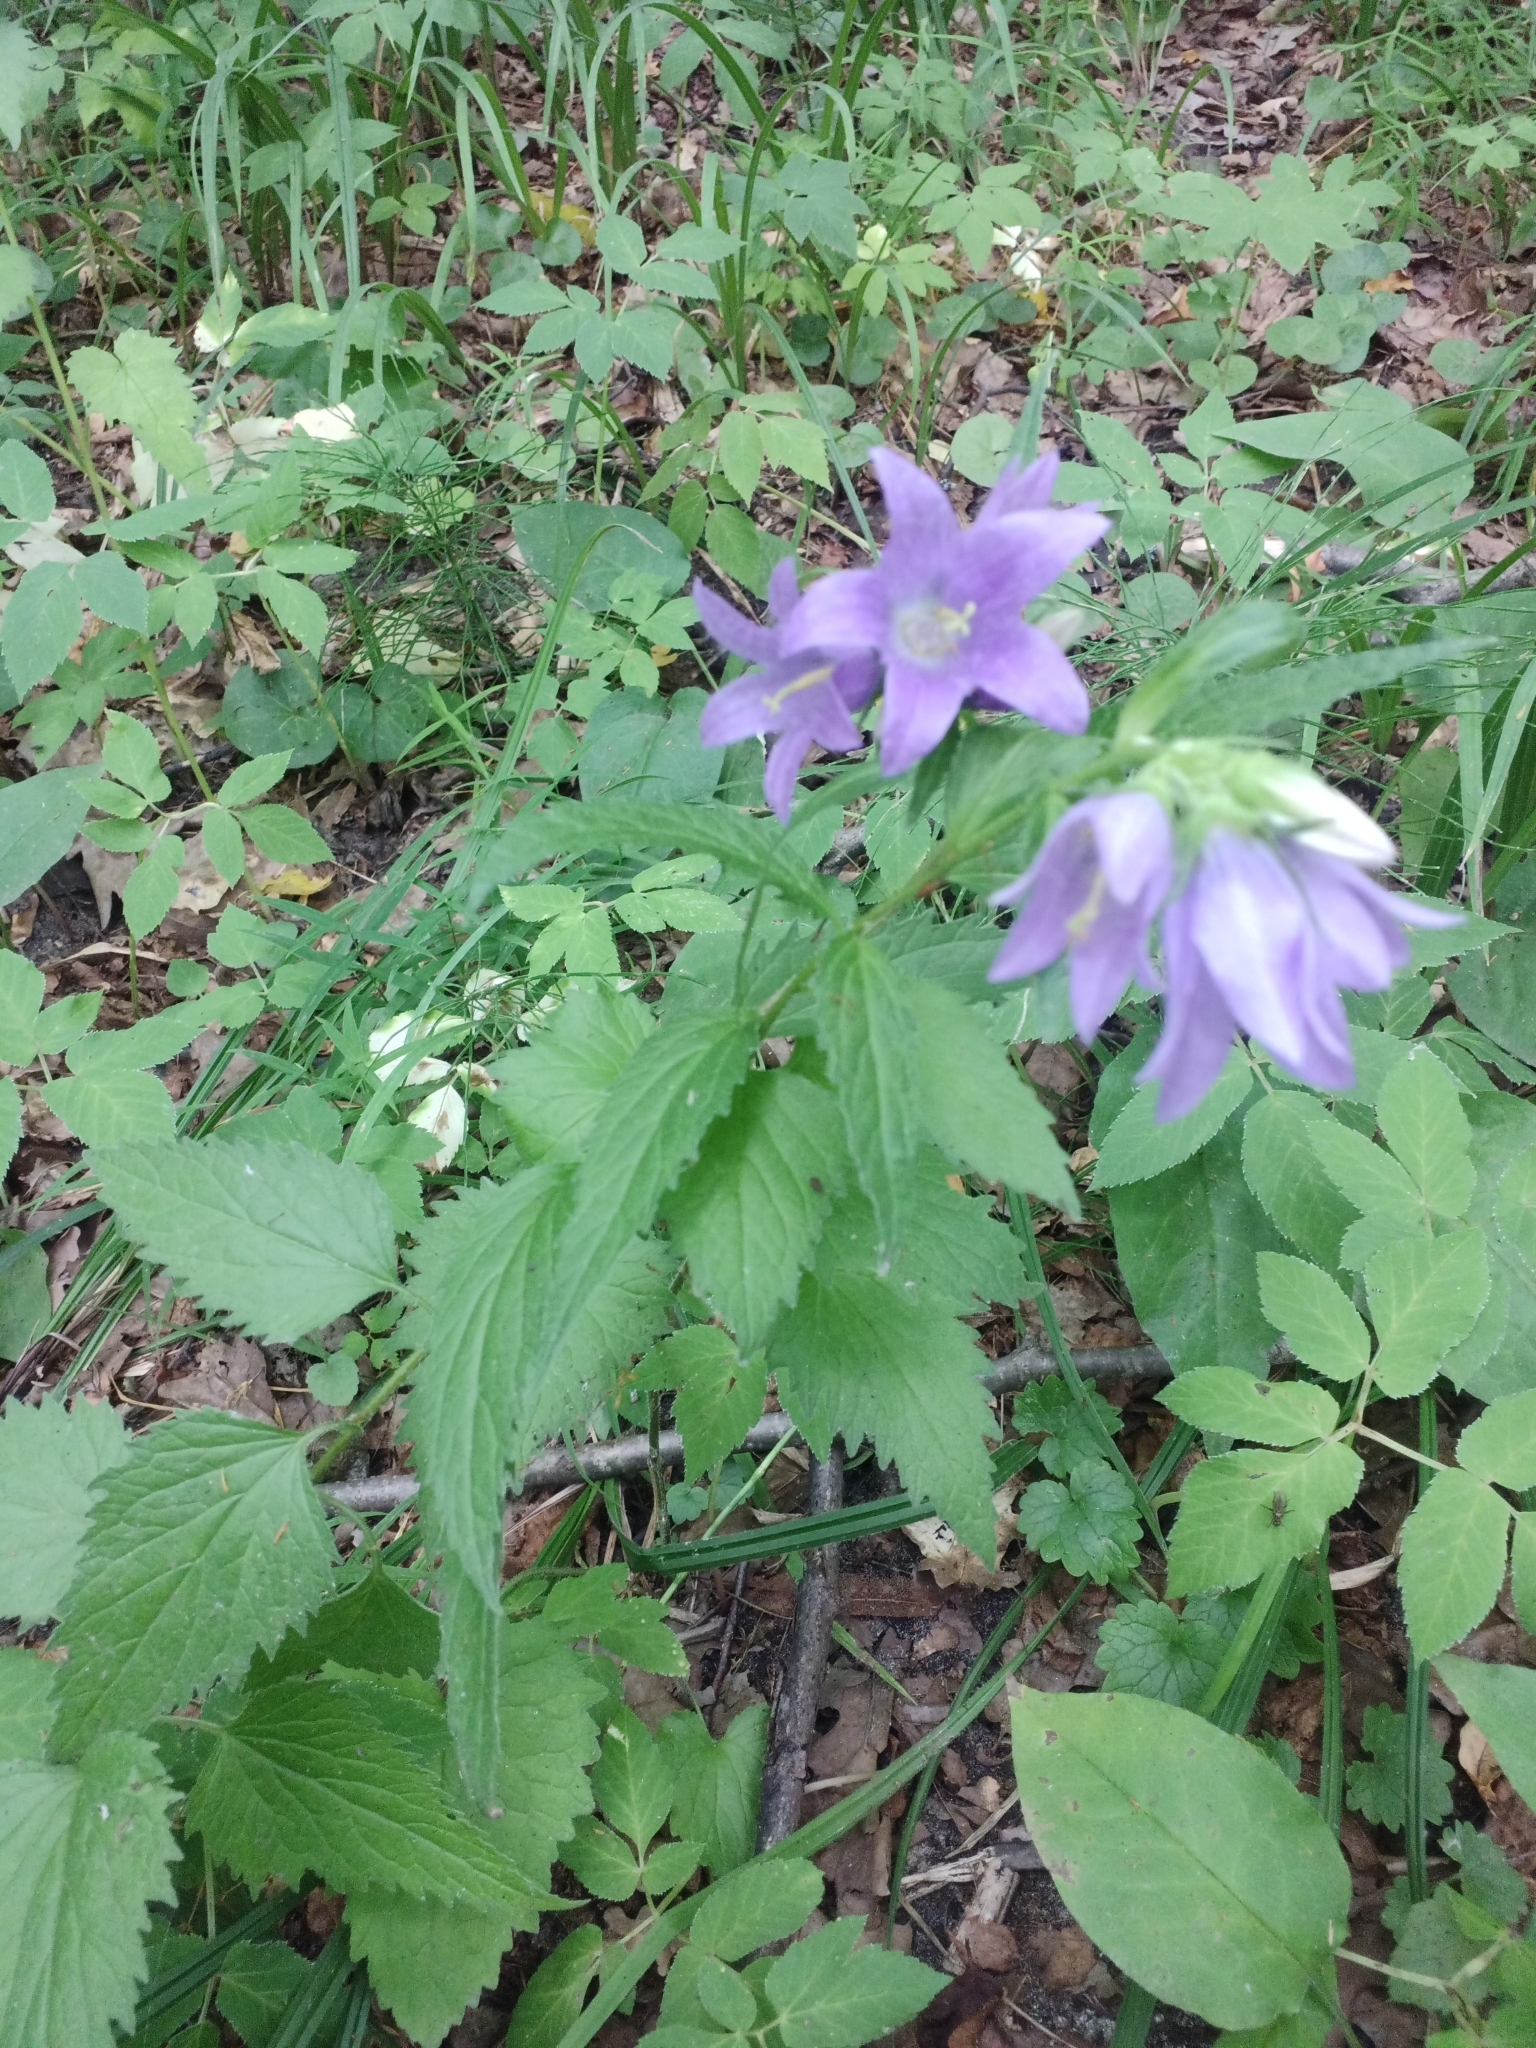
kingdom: Plantae
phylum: Tracheophyta
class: Magnoliopsida
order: Asterales
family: Campanulaceae
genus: Campanula
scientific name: Campanula trachelium
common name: Nettle-leaved bellflower
